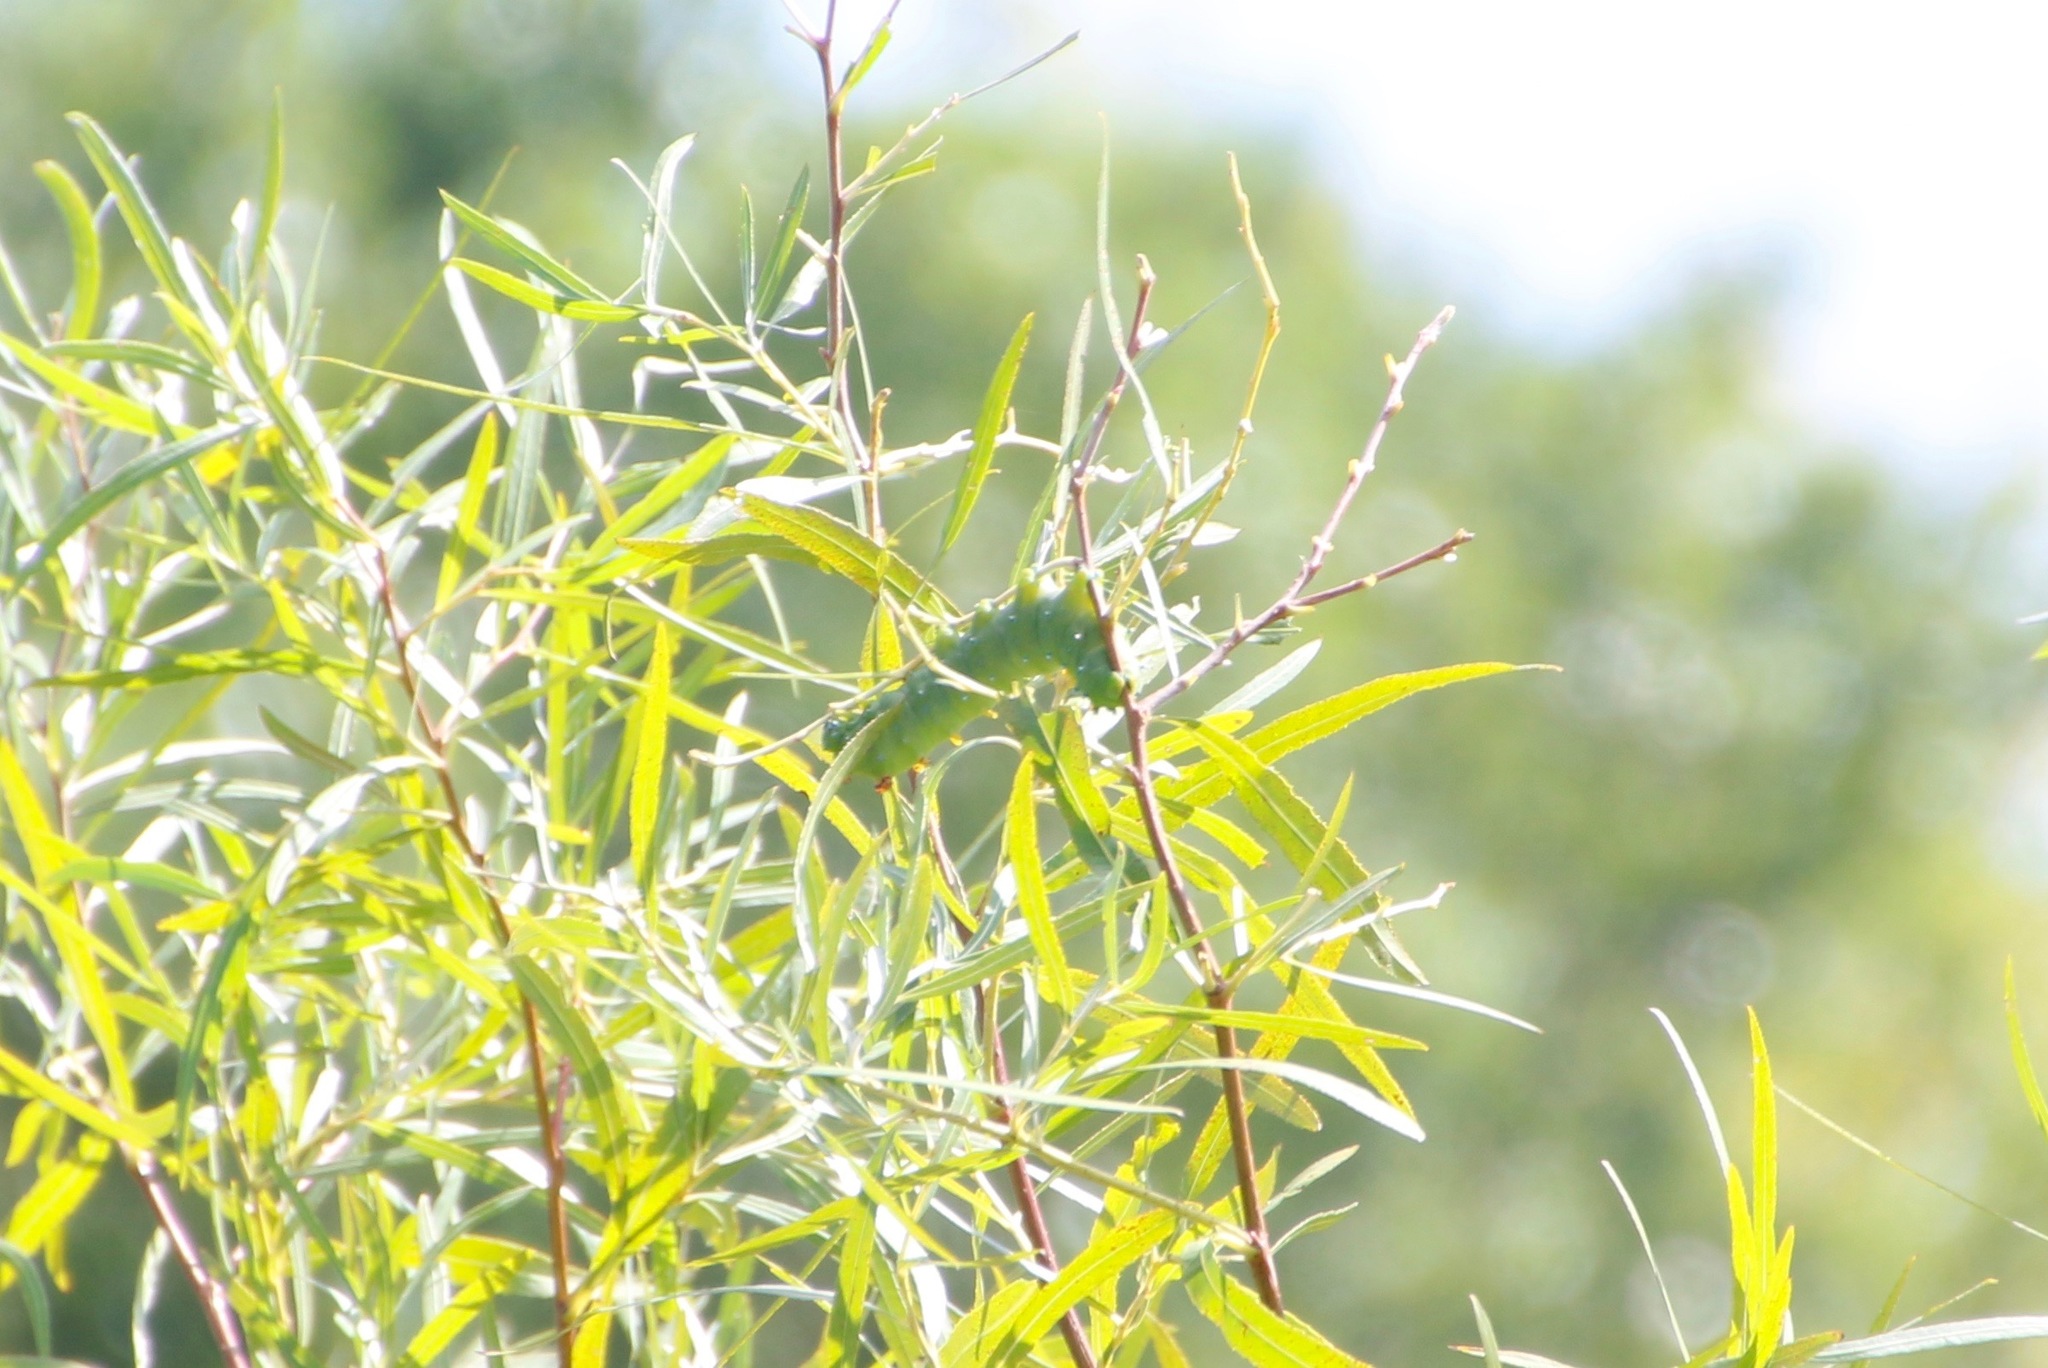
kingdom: Animalia
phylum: Arthropoda
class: Insecta
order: Lepidoptera
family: Saturniidae
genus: Hyalophora
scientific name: Hyalophora cecropia
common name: Cecropia silkmoth
